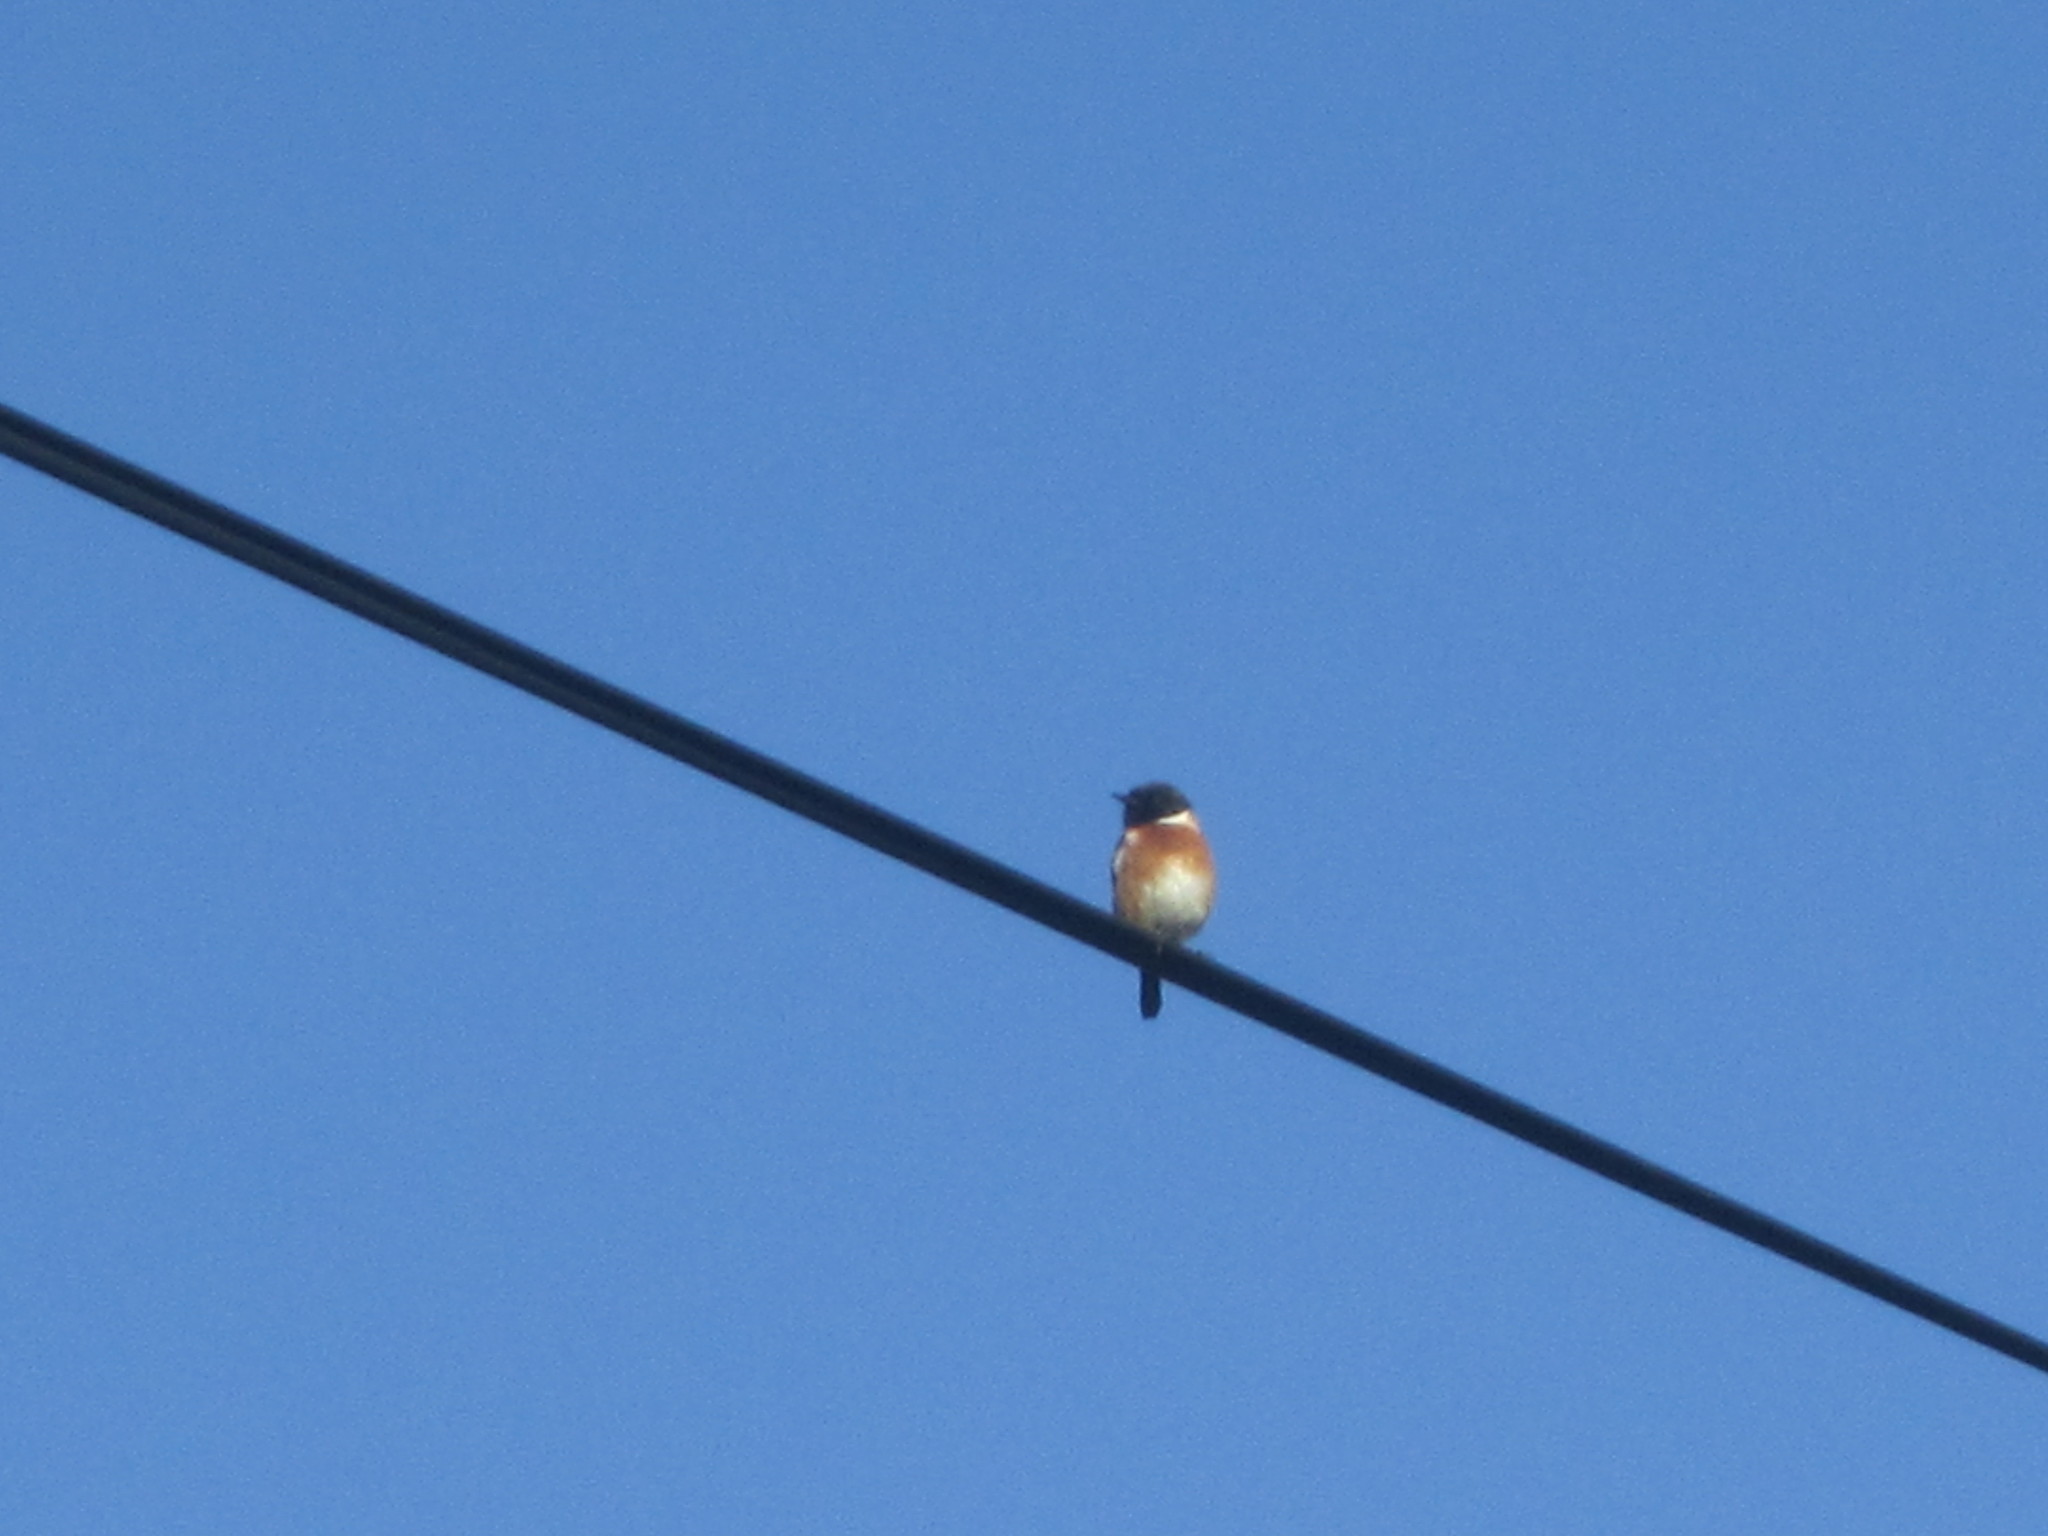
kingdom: Animalia
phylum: Chordata
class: Aves
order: Passeriformes
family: Muscicapidae
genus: Saxicola
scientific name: Saxicola rubicola
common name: European stonechat
